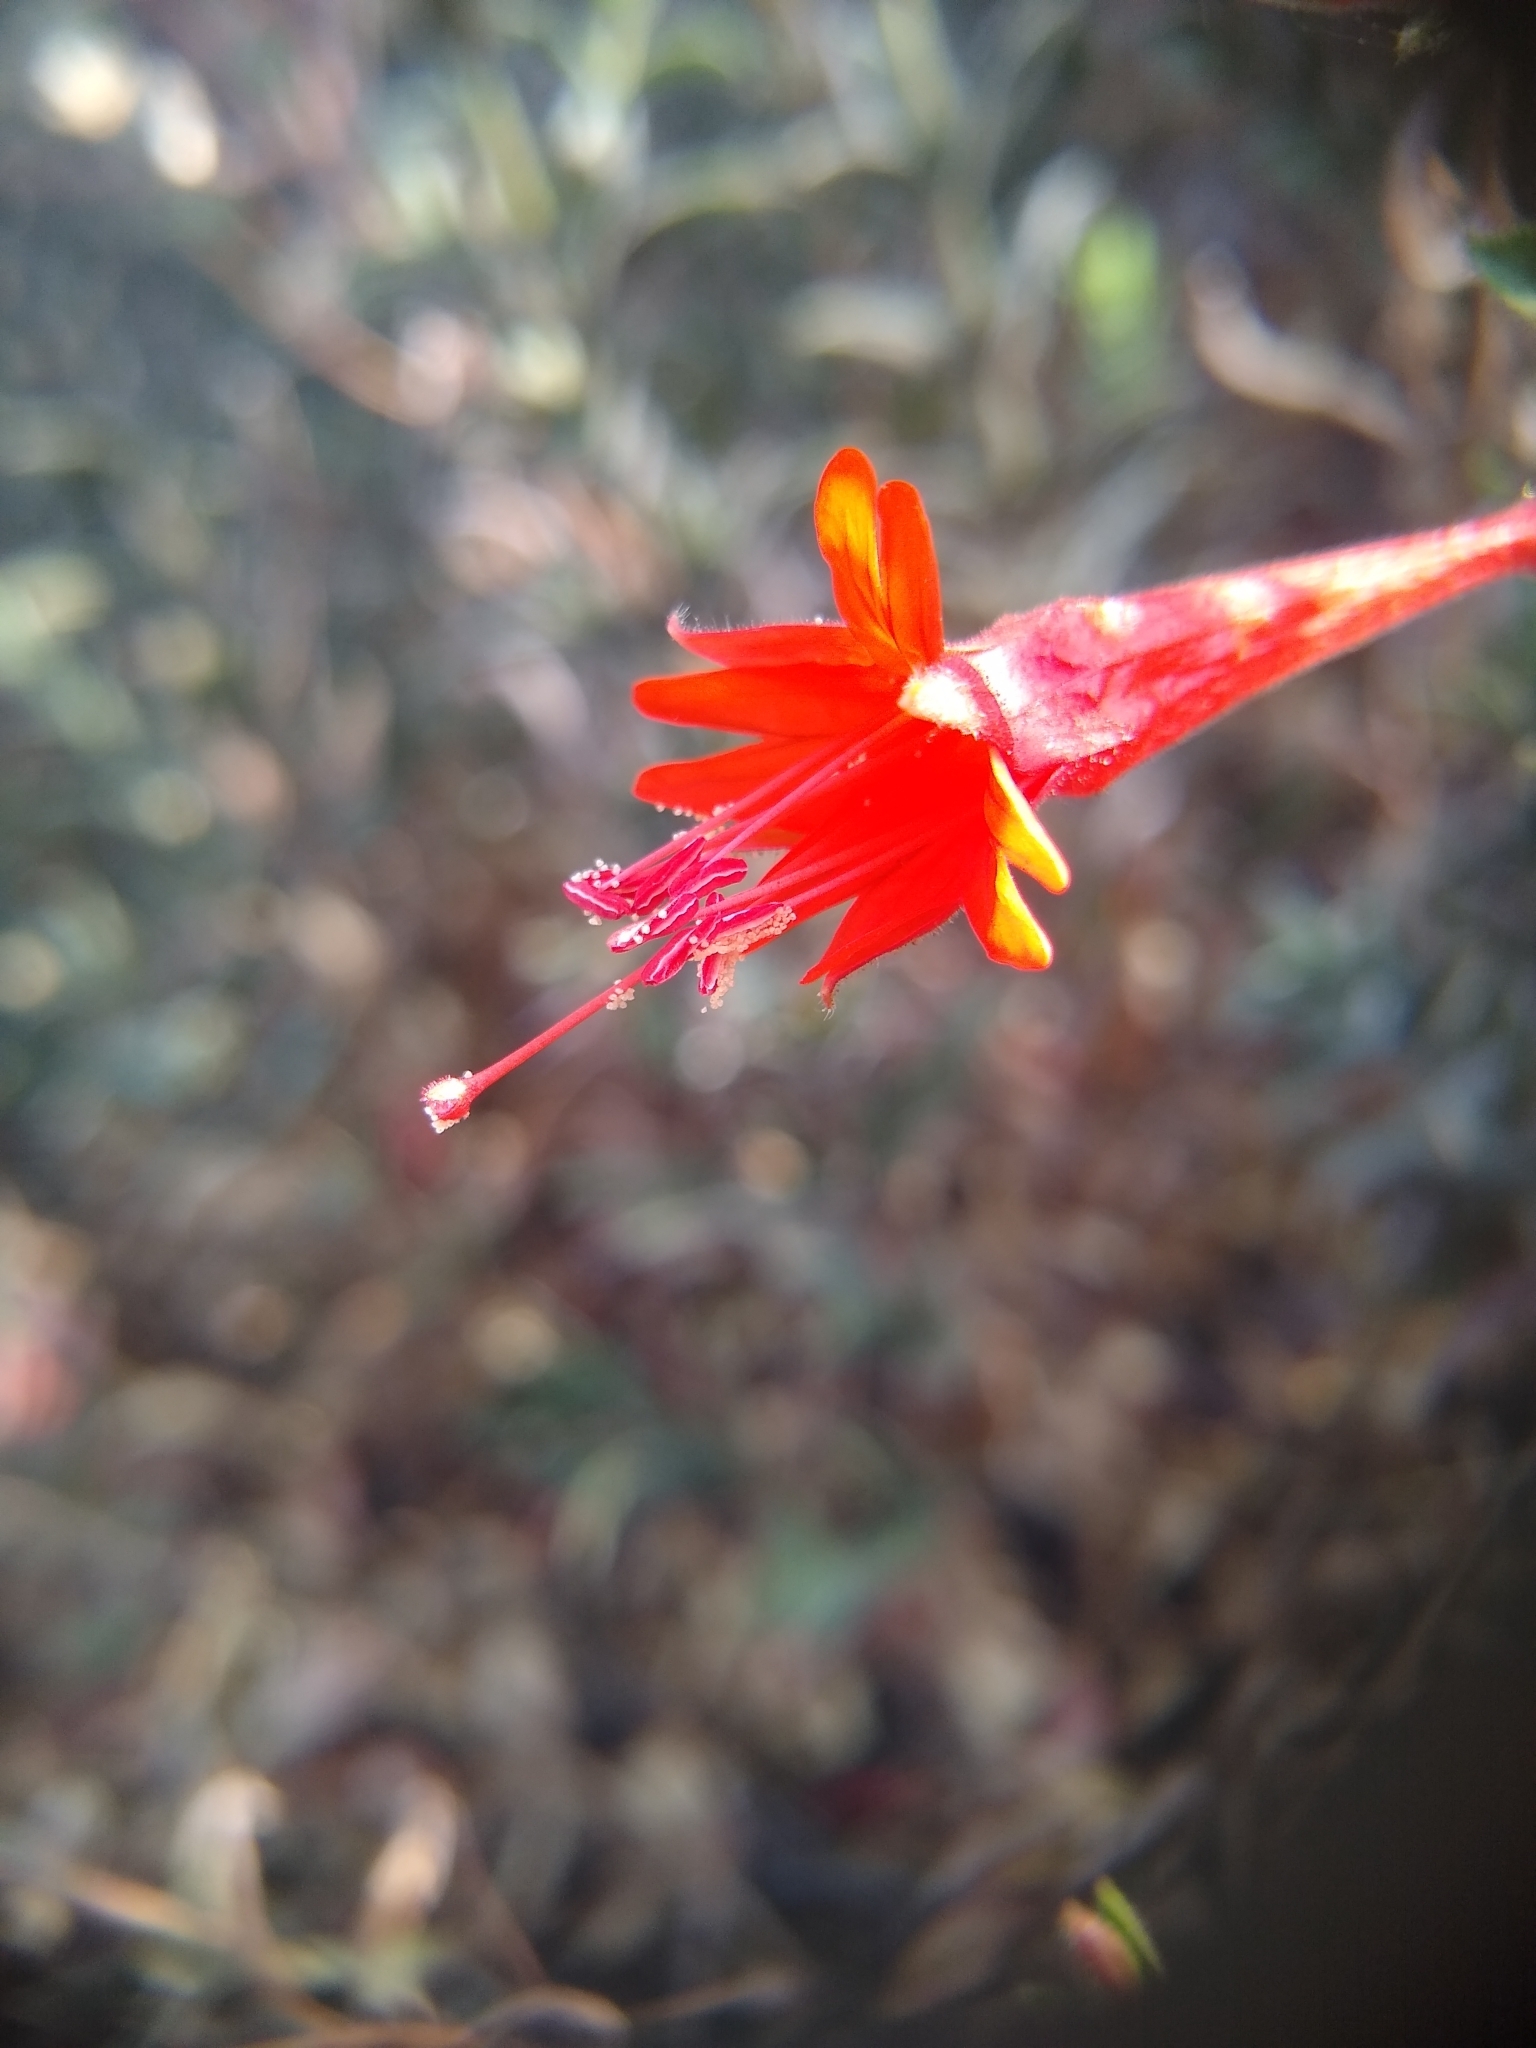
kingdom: Plantae
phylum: Tracheophyta
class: Magnoliopsida
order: Myrtales
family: Onagraceae
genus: Epilobium
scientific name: Epilobium canum
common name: California-fuchsia
